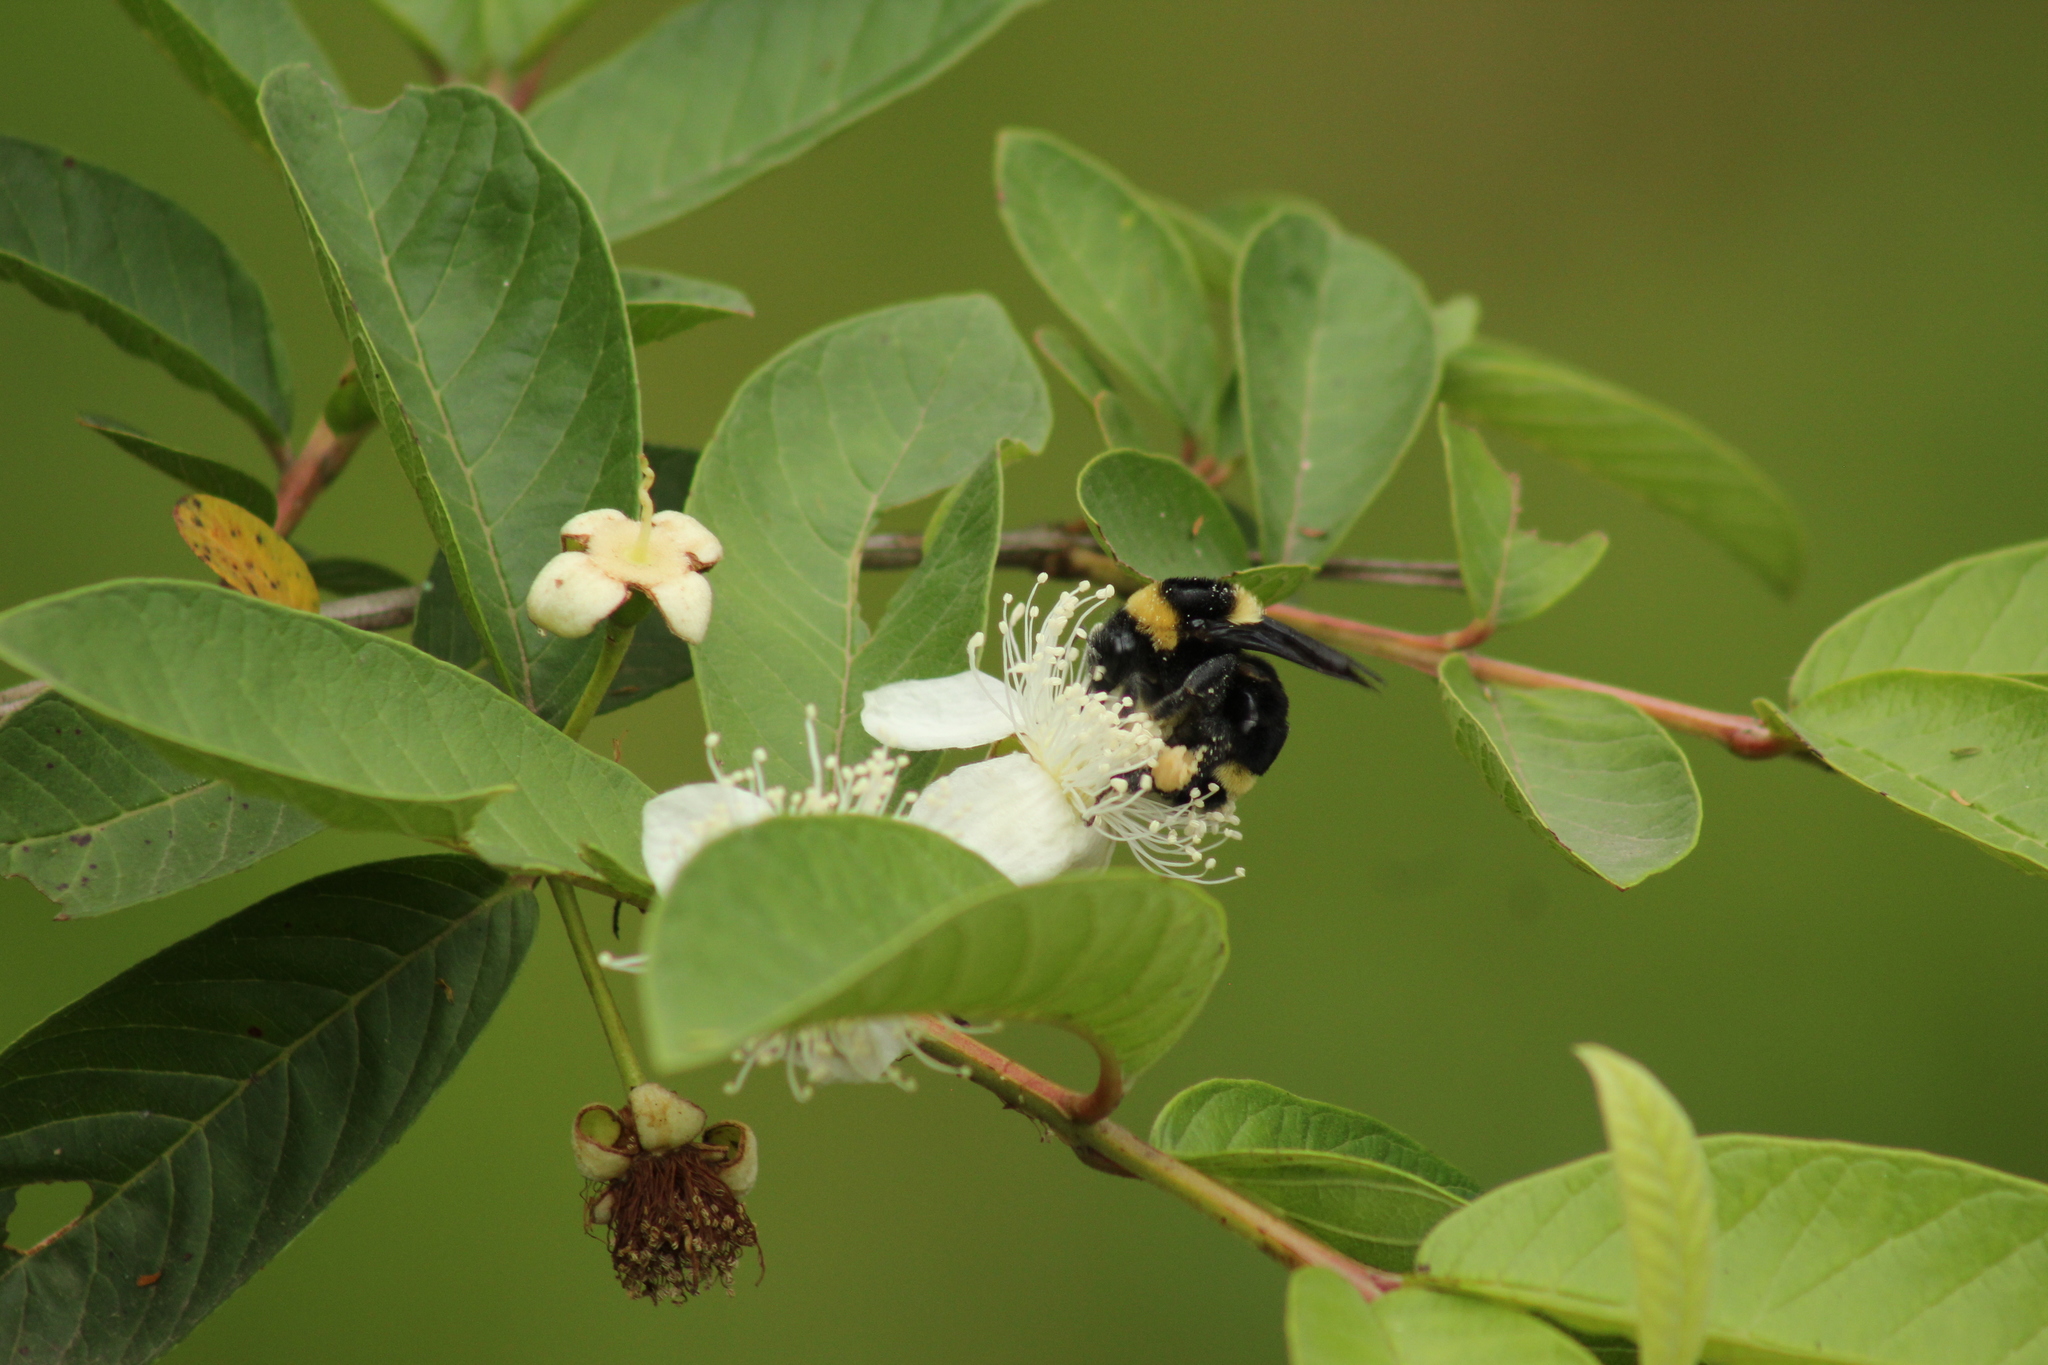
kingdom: Animalia
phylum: Arthropoda
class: Insecta
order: Hymenoptera
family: Apidae
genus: Bombus
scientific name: Bombus medius
